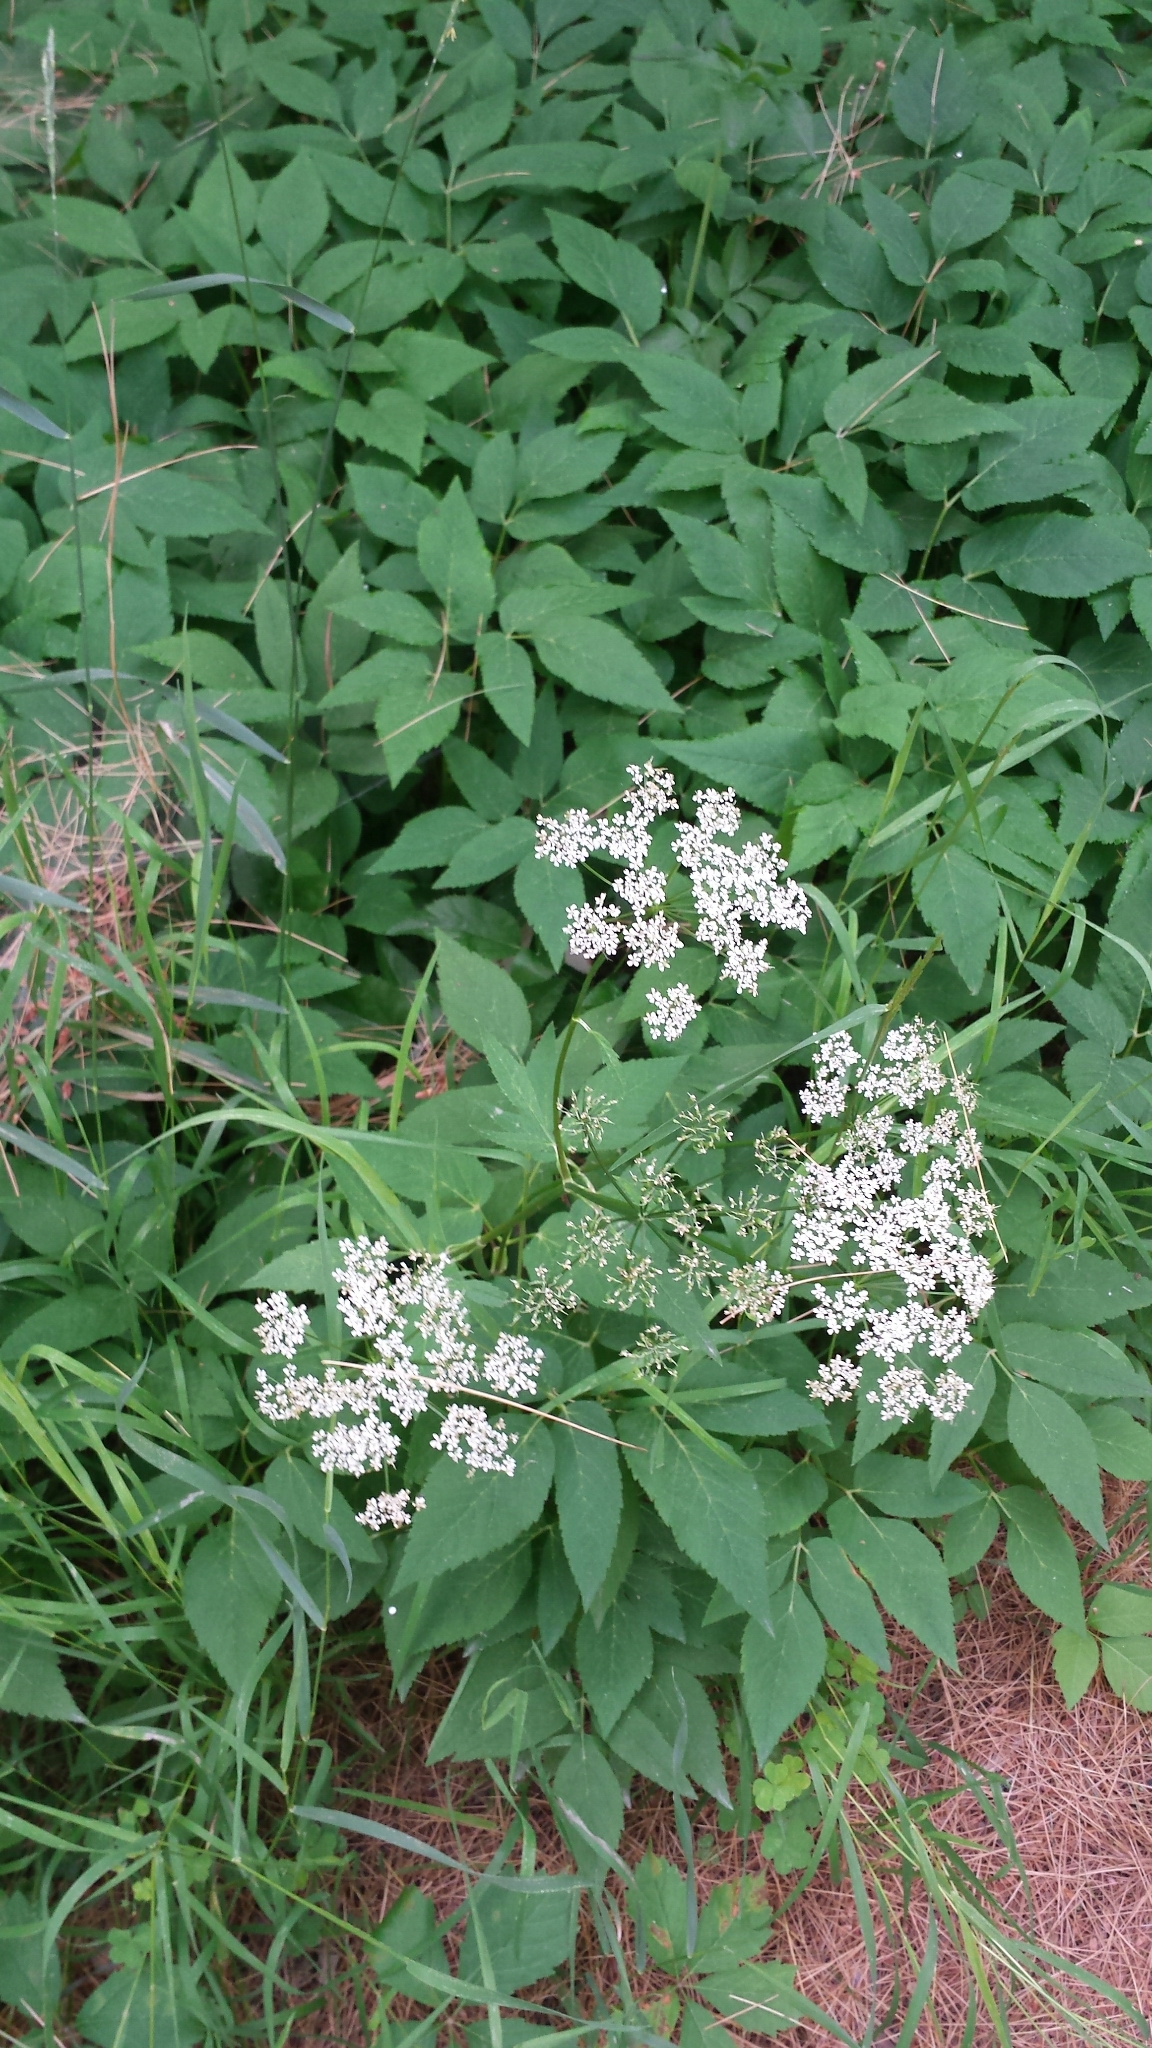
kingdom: Plantae
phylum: Tracheophyta
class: Magnoliopsida
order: Apiales
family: Apiaceae
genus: Aegopodium
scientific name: Aegopodium podagraria
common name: Ground-elder
